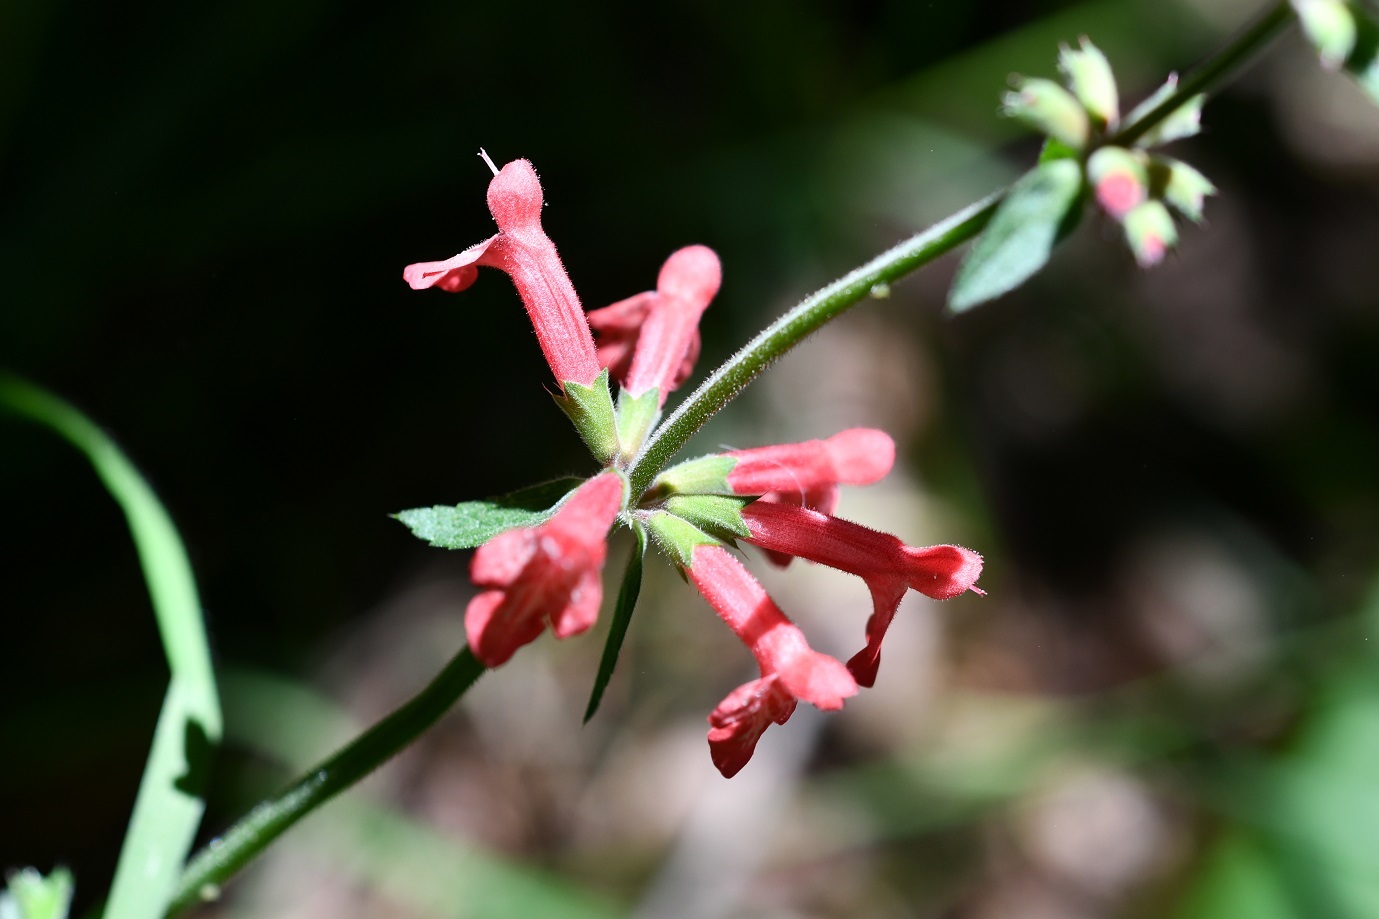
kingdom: Plantae
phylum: Tracheophyta
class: Magnoliopsida
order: Lamiales
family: Lamiaceae
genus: Stachys
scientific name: Stachys coccinea
